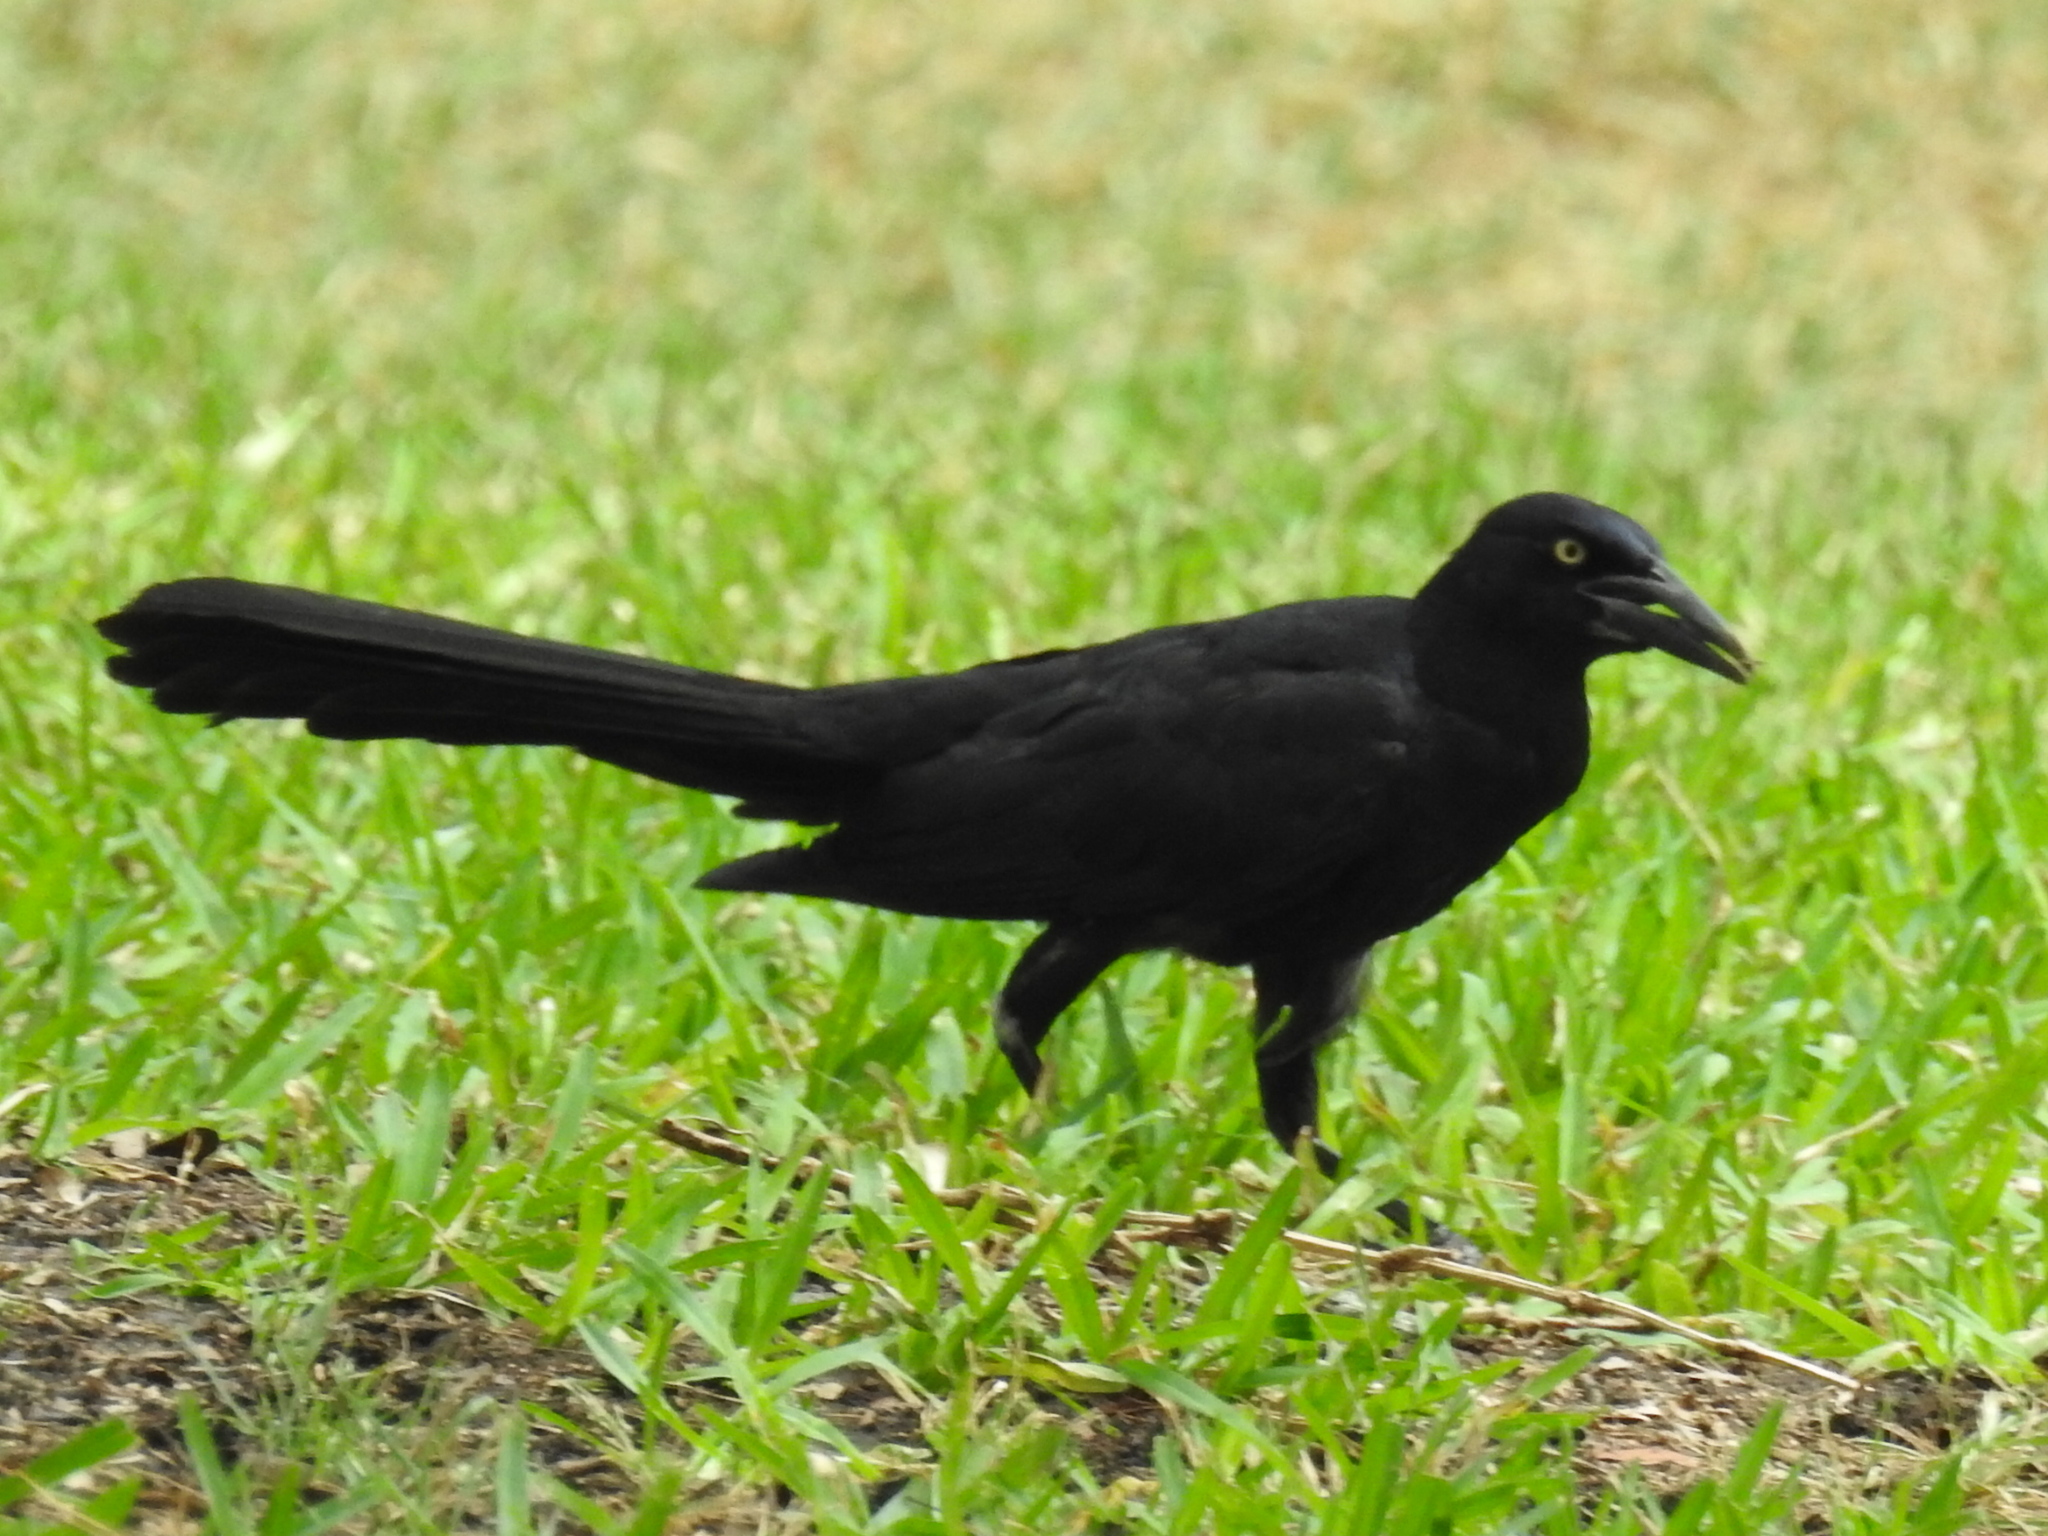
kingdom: Animalia
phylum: Chordata
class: Aves
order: Passeriformes
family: Icteridae
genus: Quiscalus
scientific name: Quiscalus mexicanus
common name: Great-tailed grackle
